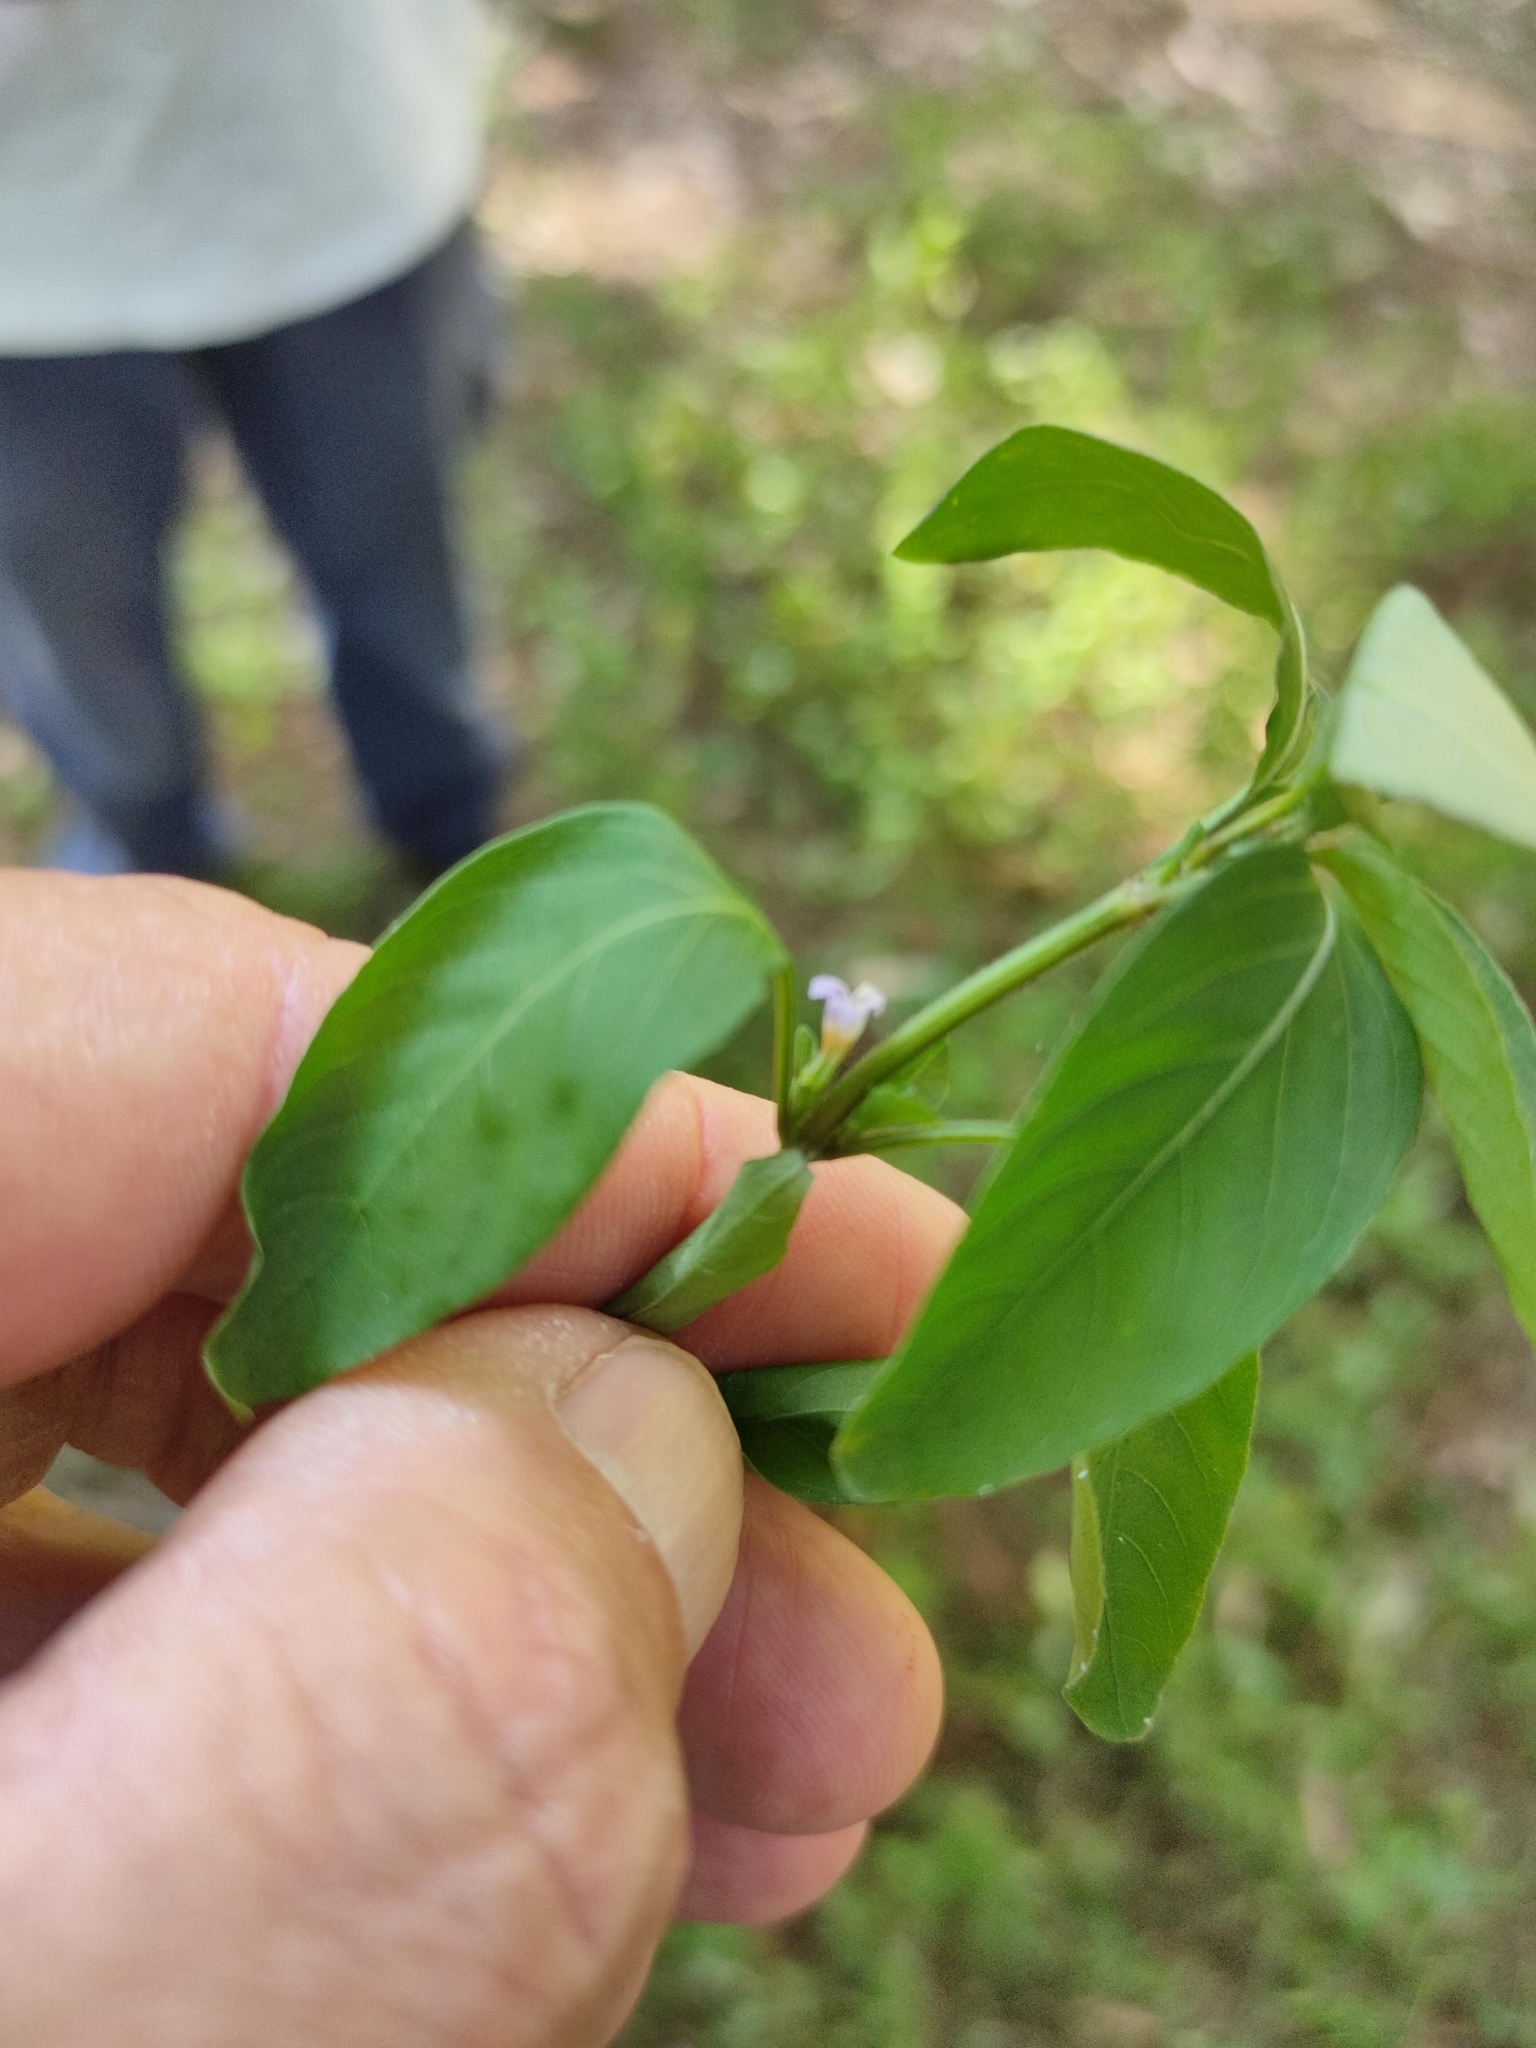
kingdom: Plantae
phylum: Tracheophyta
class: Magnoliopsida
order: Lamiales
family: Acanthaceae
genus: Hygrophila
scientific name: Hygrophila erecta
